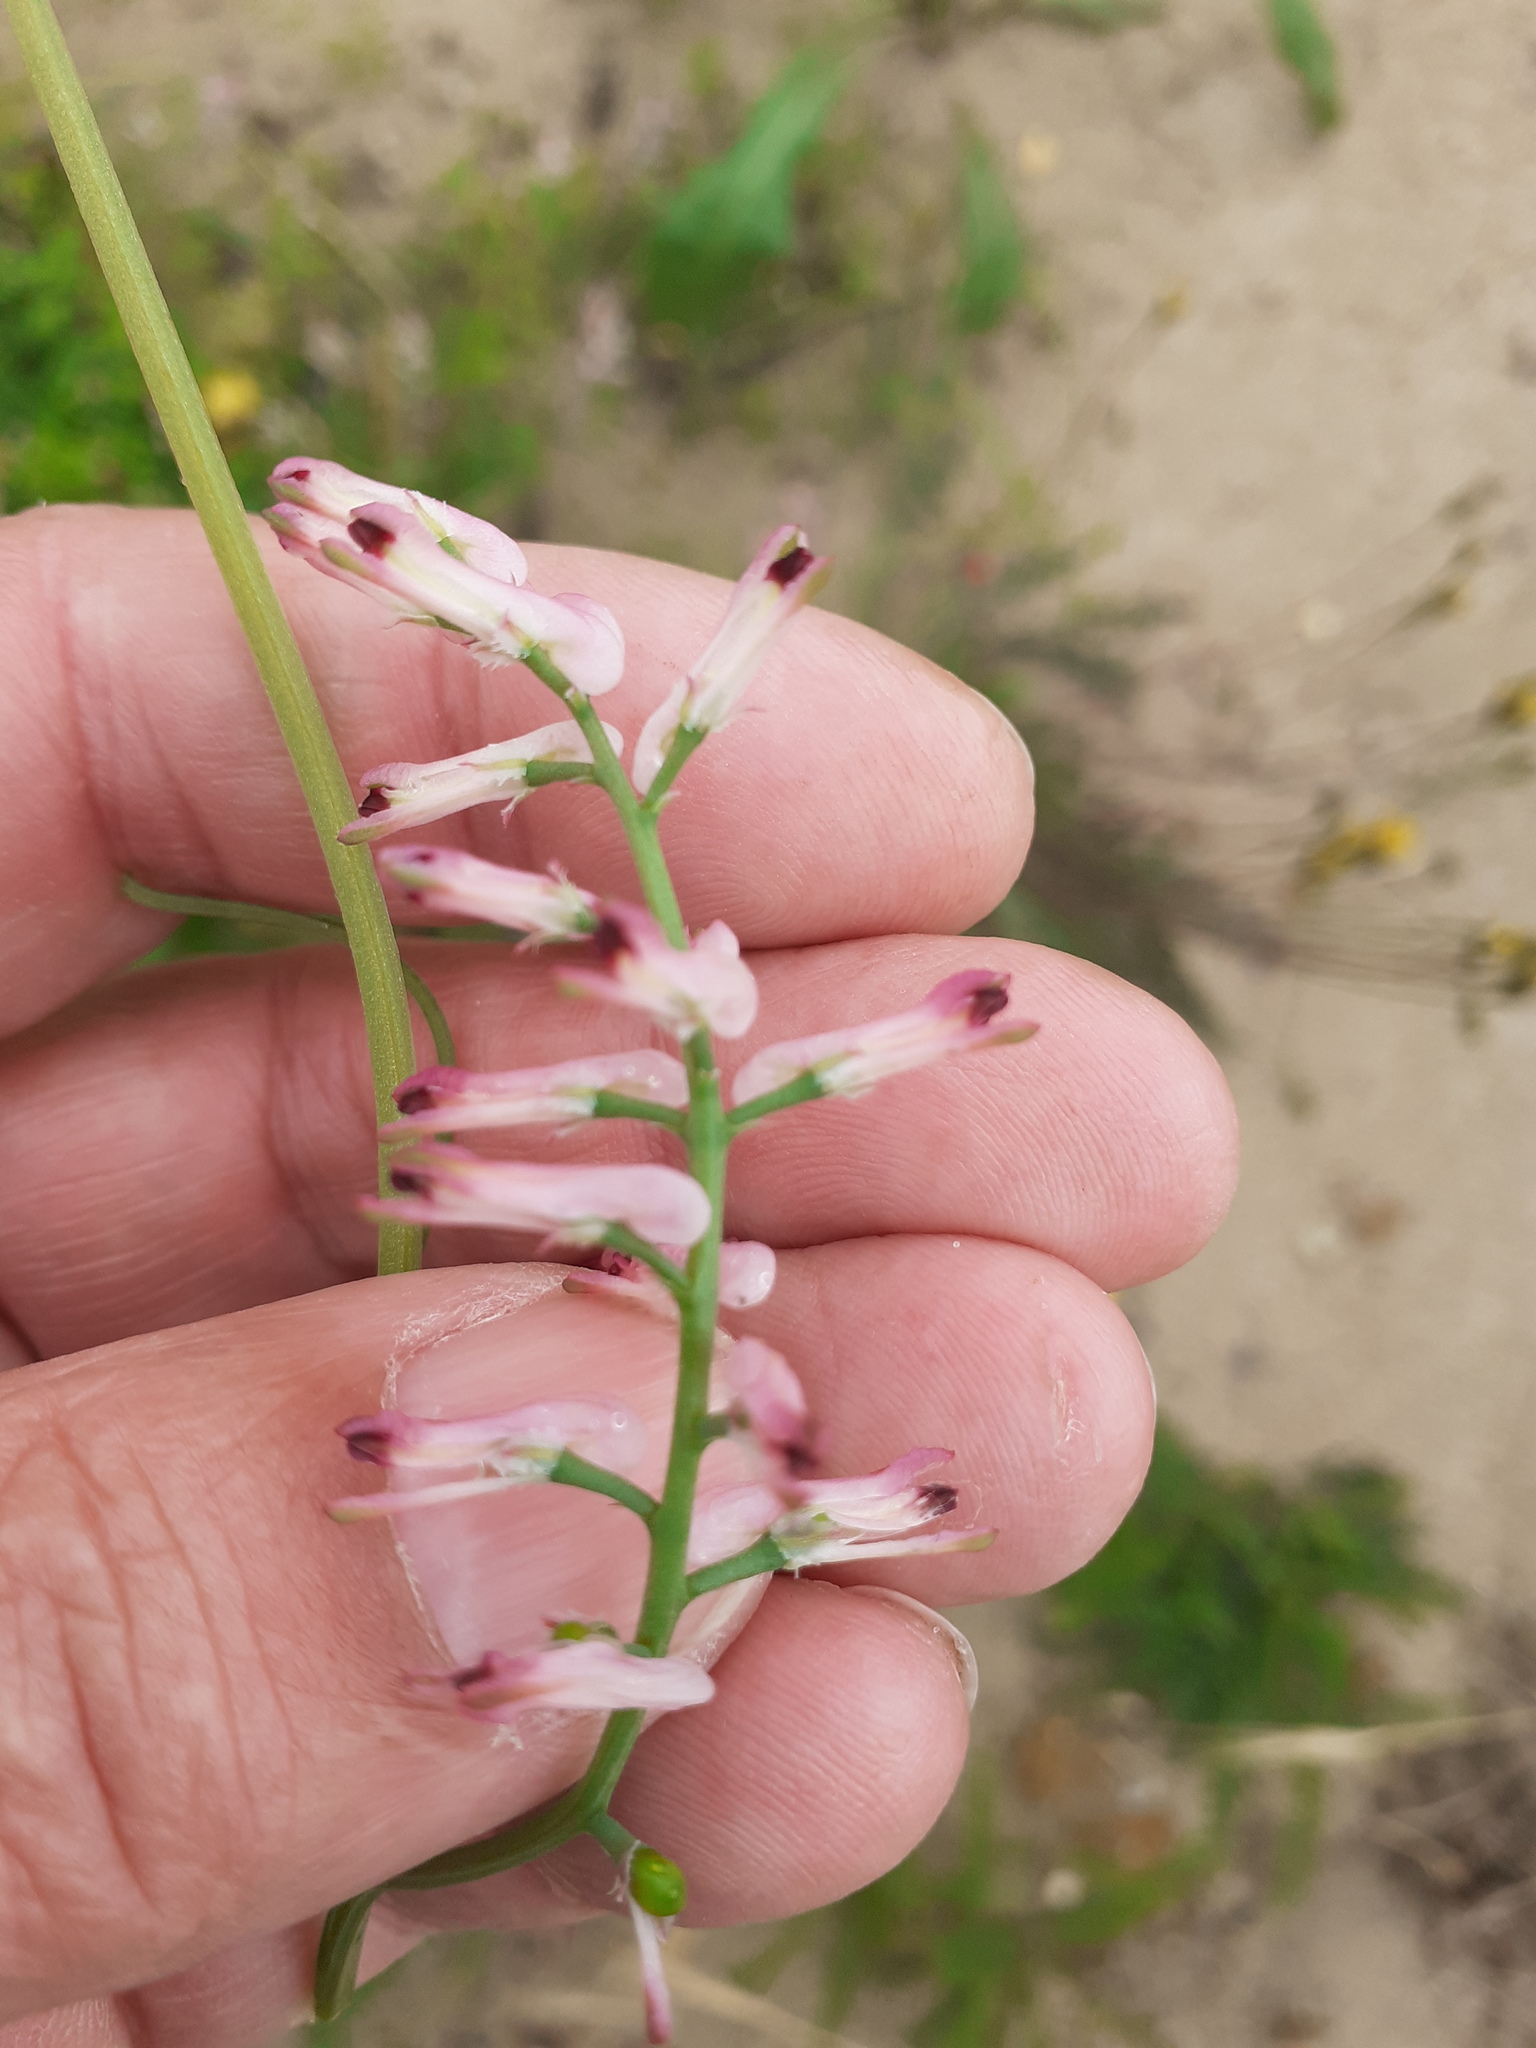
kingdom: Plantae
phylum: Tracheophyta
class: Magnoliopsida
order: Ranunculales
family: Papaveraceae
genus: Fumaria
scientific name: Fumaria officinalis
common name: Common fumitory
